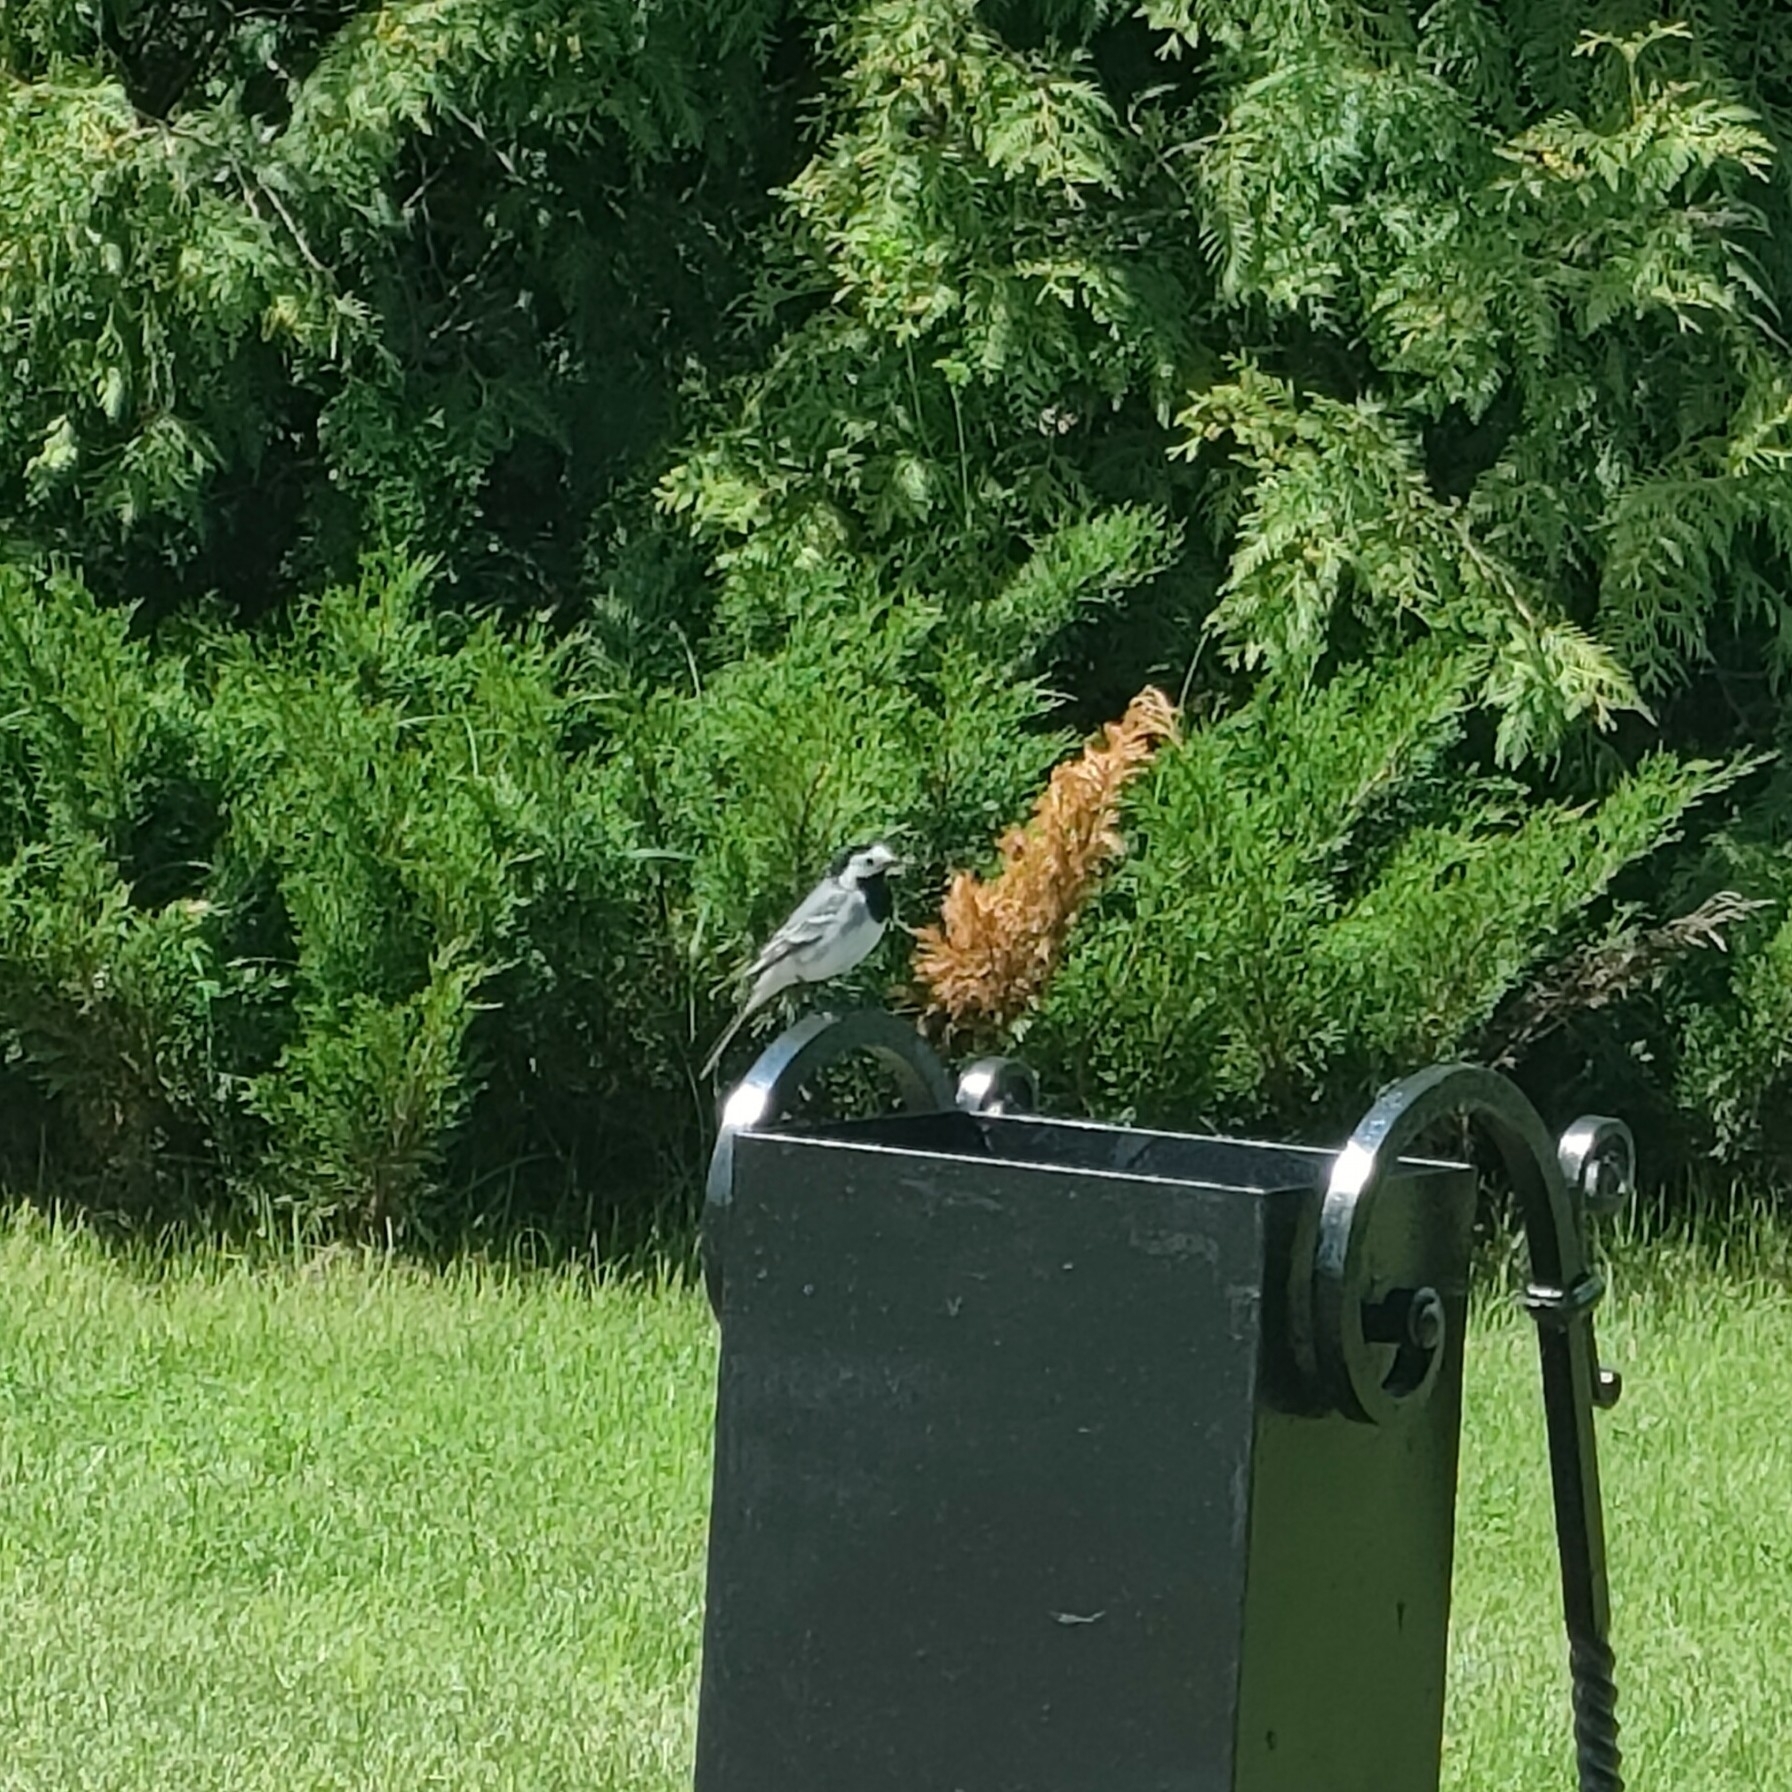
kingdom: Animalia
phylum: Chordata
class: Aves
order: Passeriformes
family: Motacillidae
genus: Motacilla
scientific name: Motacilla alba
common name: White wagtail
